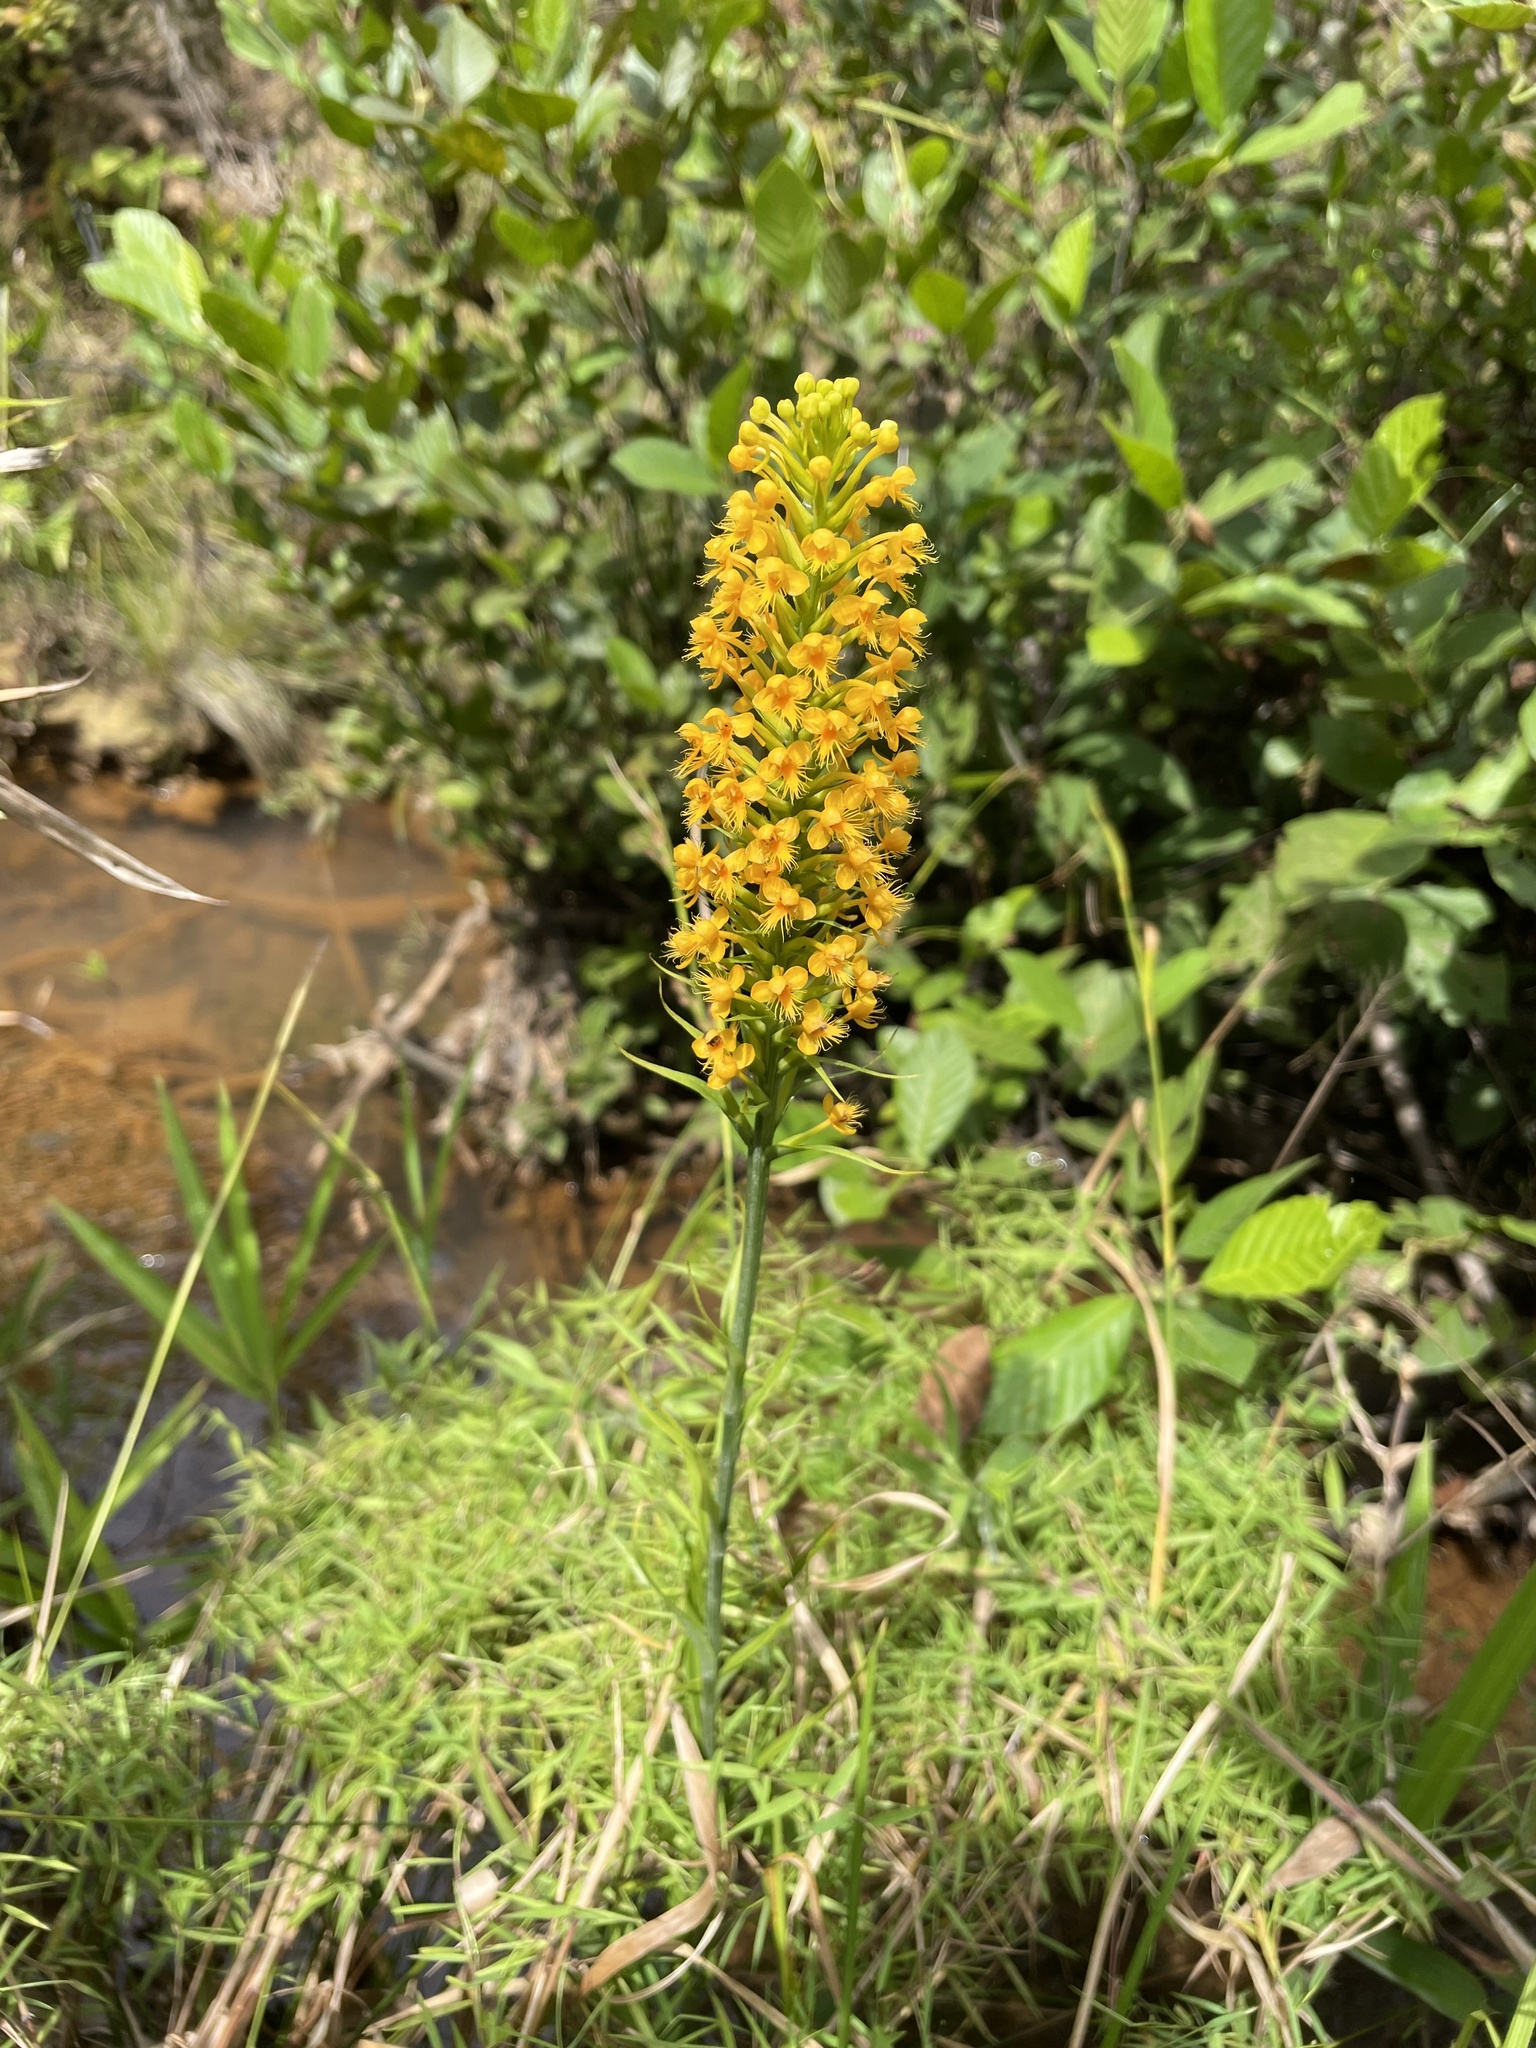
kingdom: Plantae
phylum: Tracheophyta
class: Liliopsida
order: Asparagales
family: Orchidaceae
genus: Platanthera
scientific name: Platanthera cristata
